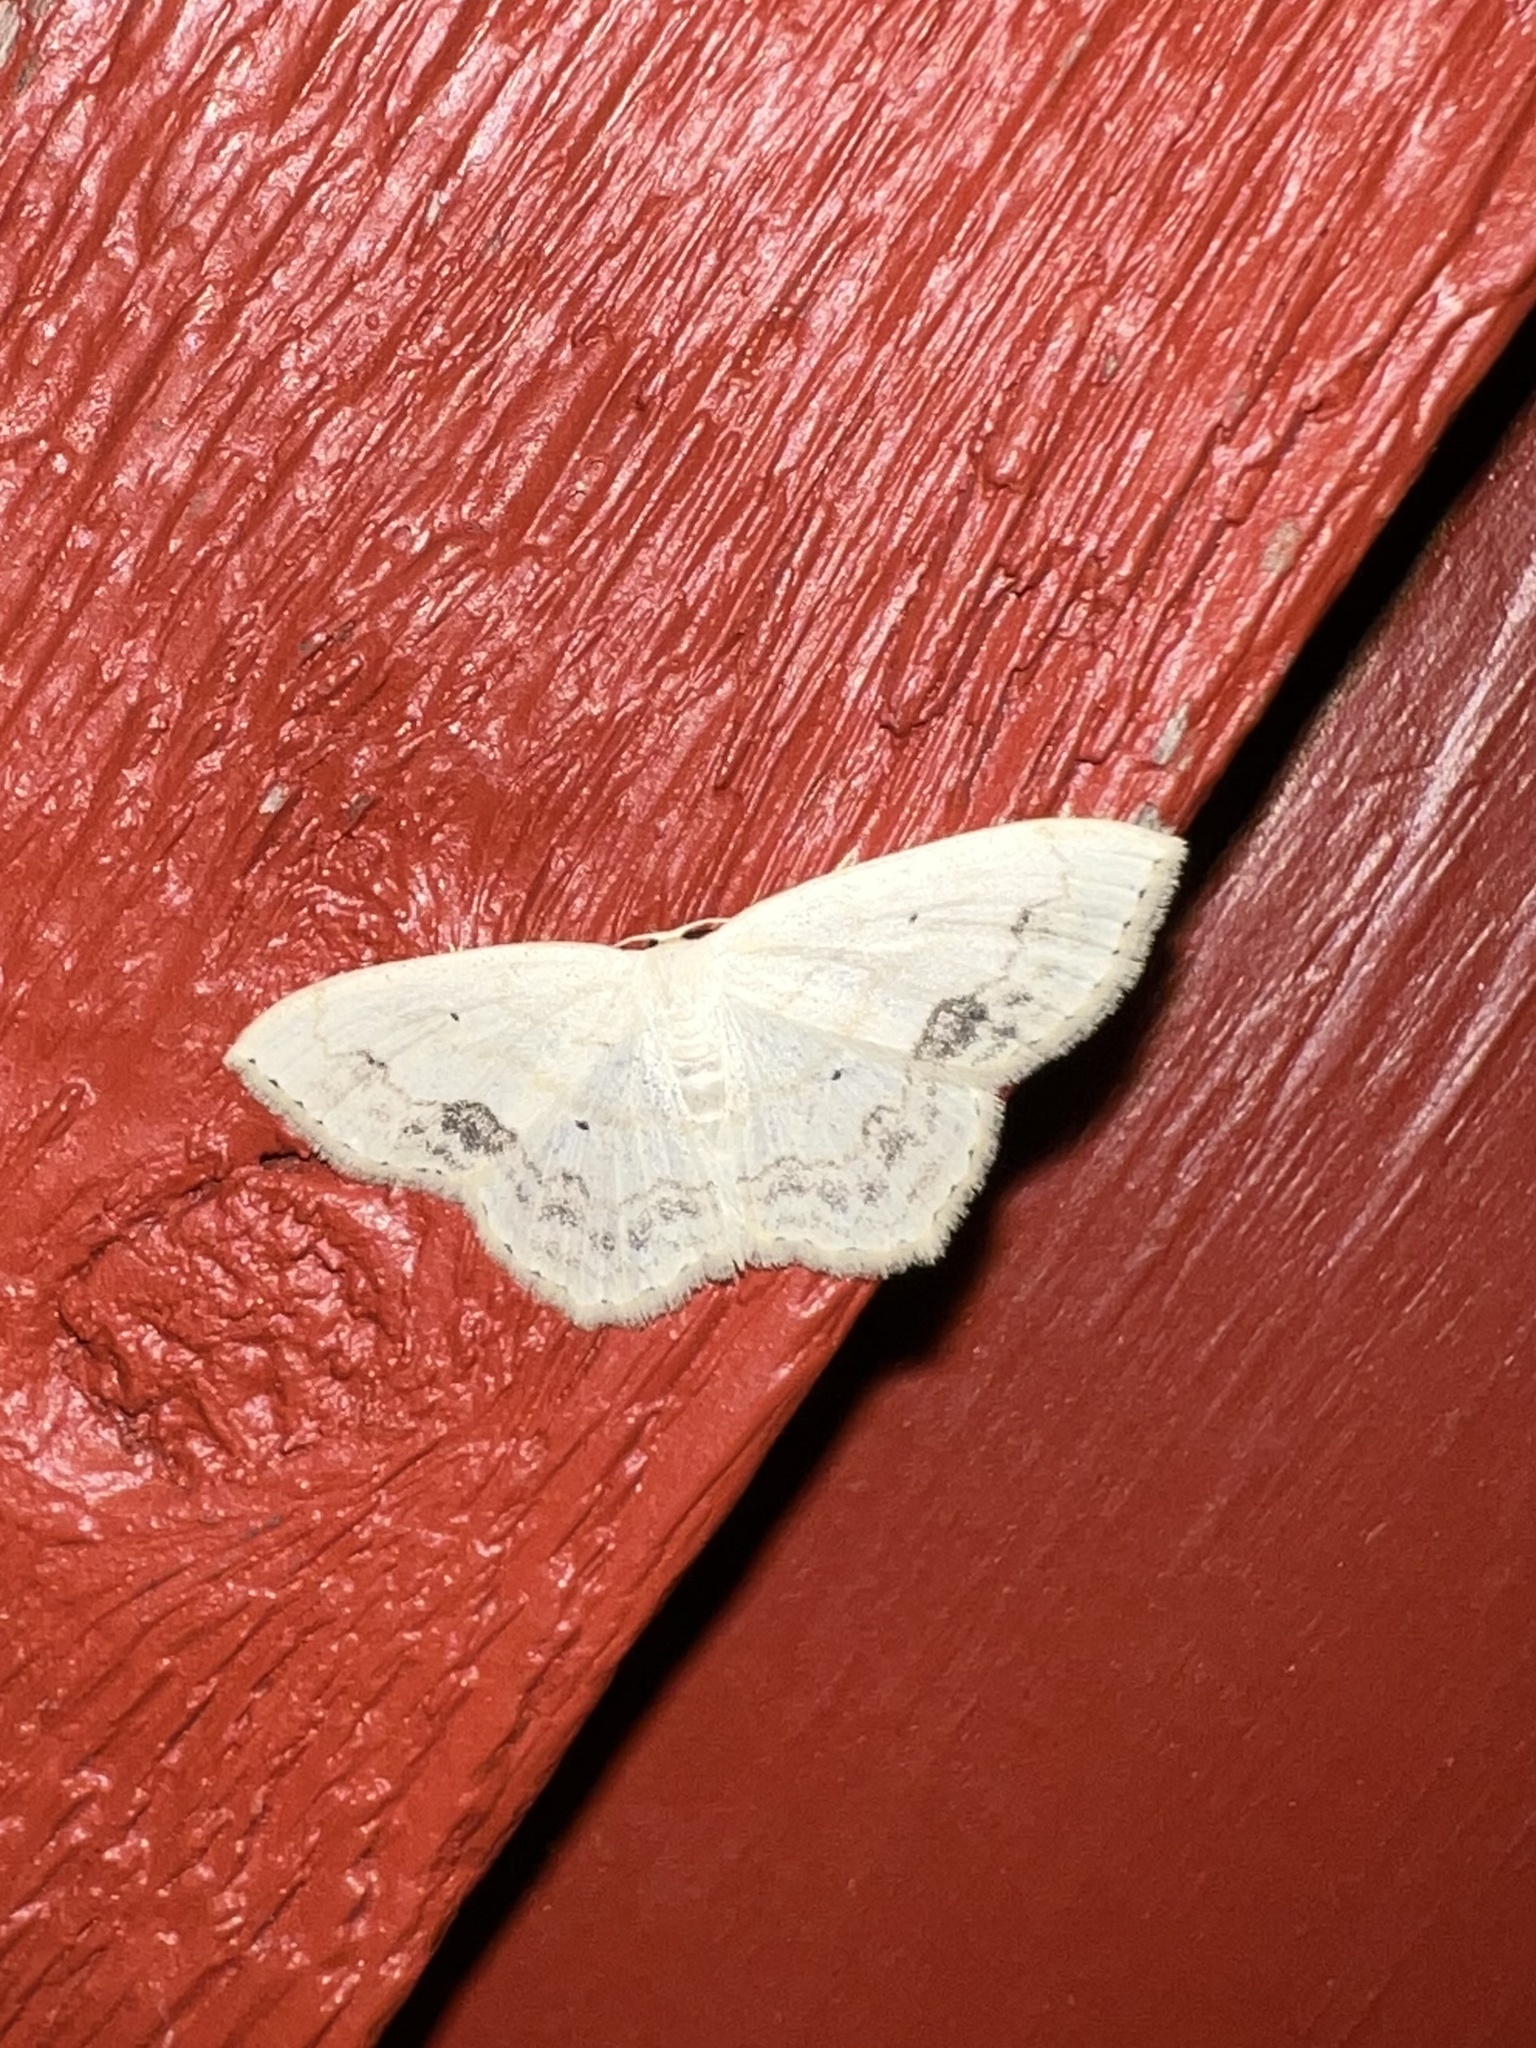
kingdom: Animalia
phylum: Arthropoda
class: Insecta
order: Lepidoptera
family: Geometridae
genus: Scopula
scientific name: Scopula limboundata
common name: Large lace border
